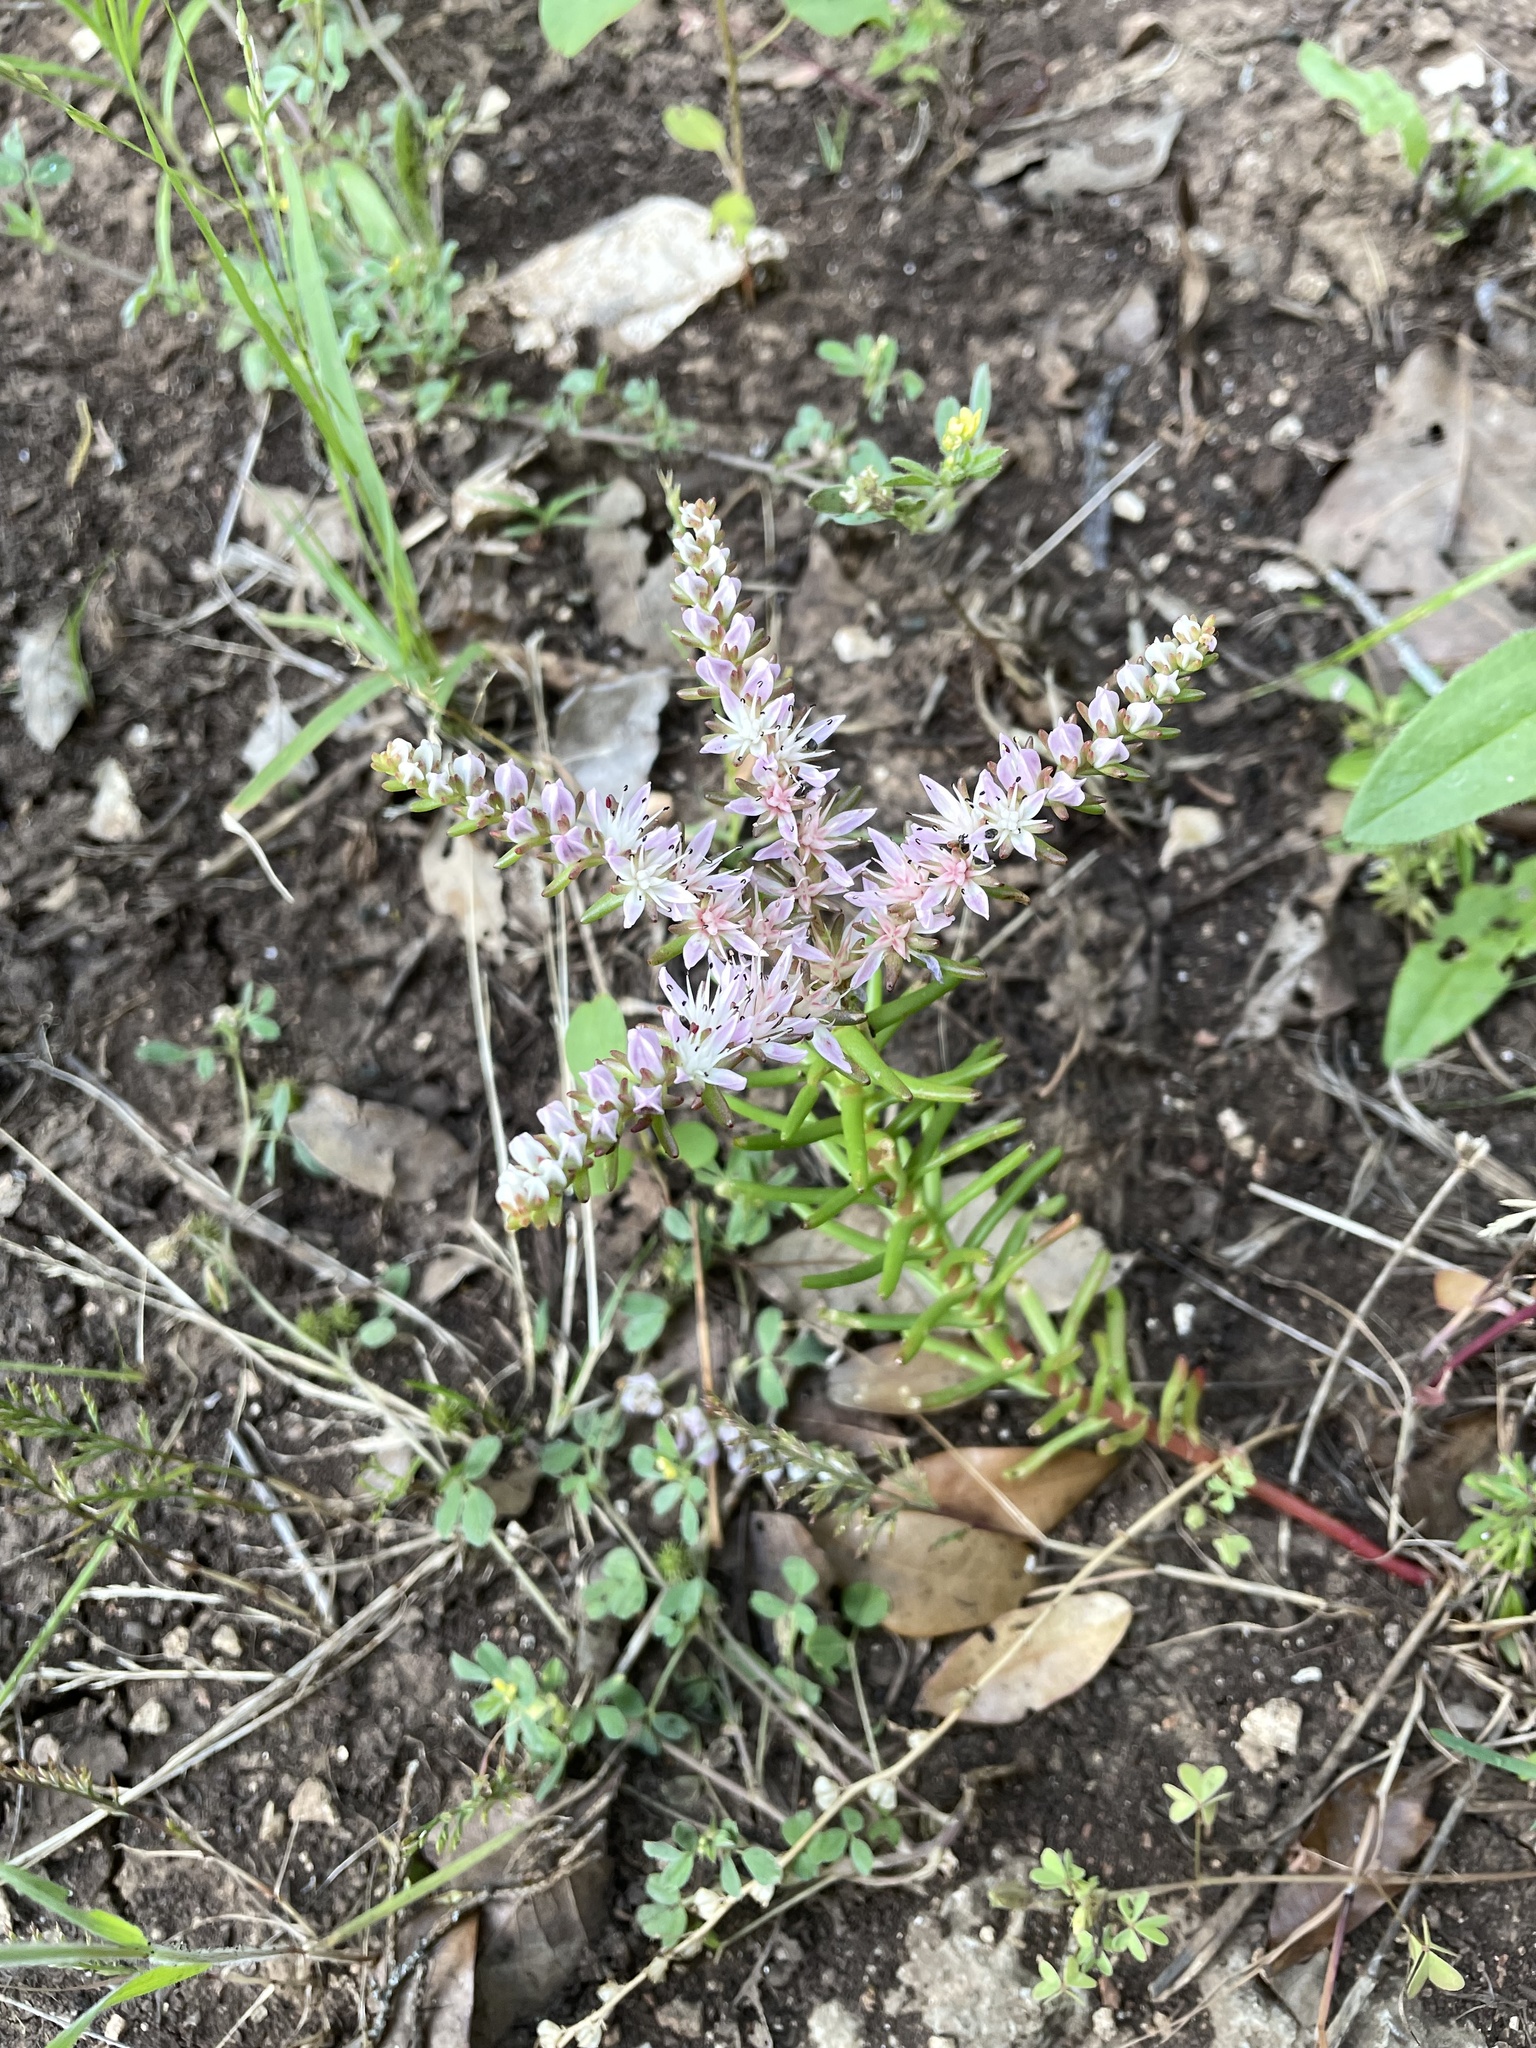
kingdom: Plantae
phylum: Tracheophyta
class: Magnoliopsida
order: Saxifragales
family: Crassulaceae
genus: Sedum
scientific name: Sedum pulchellum
